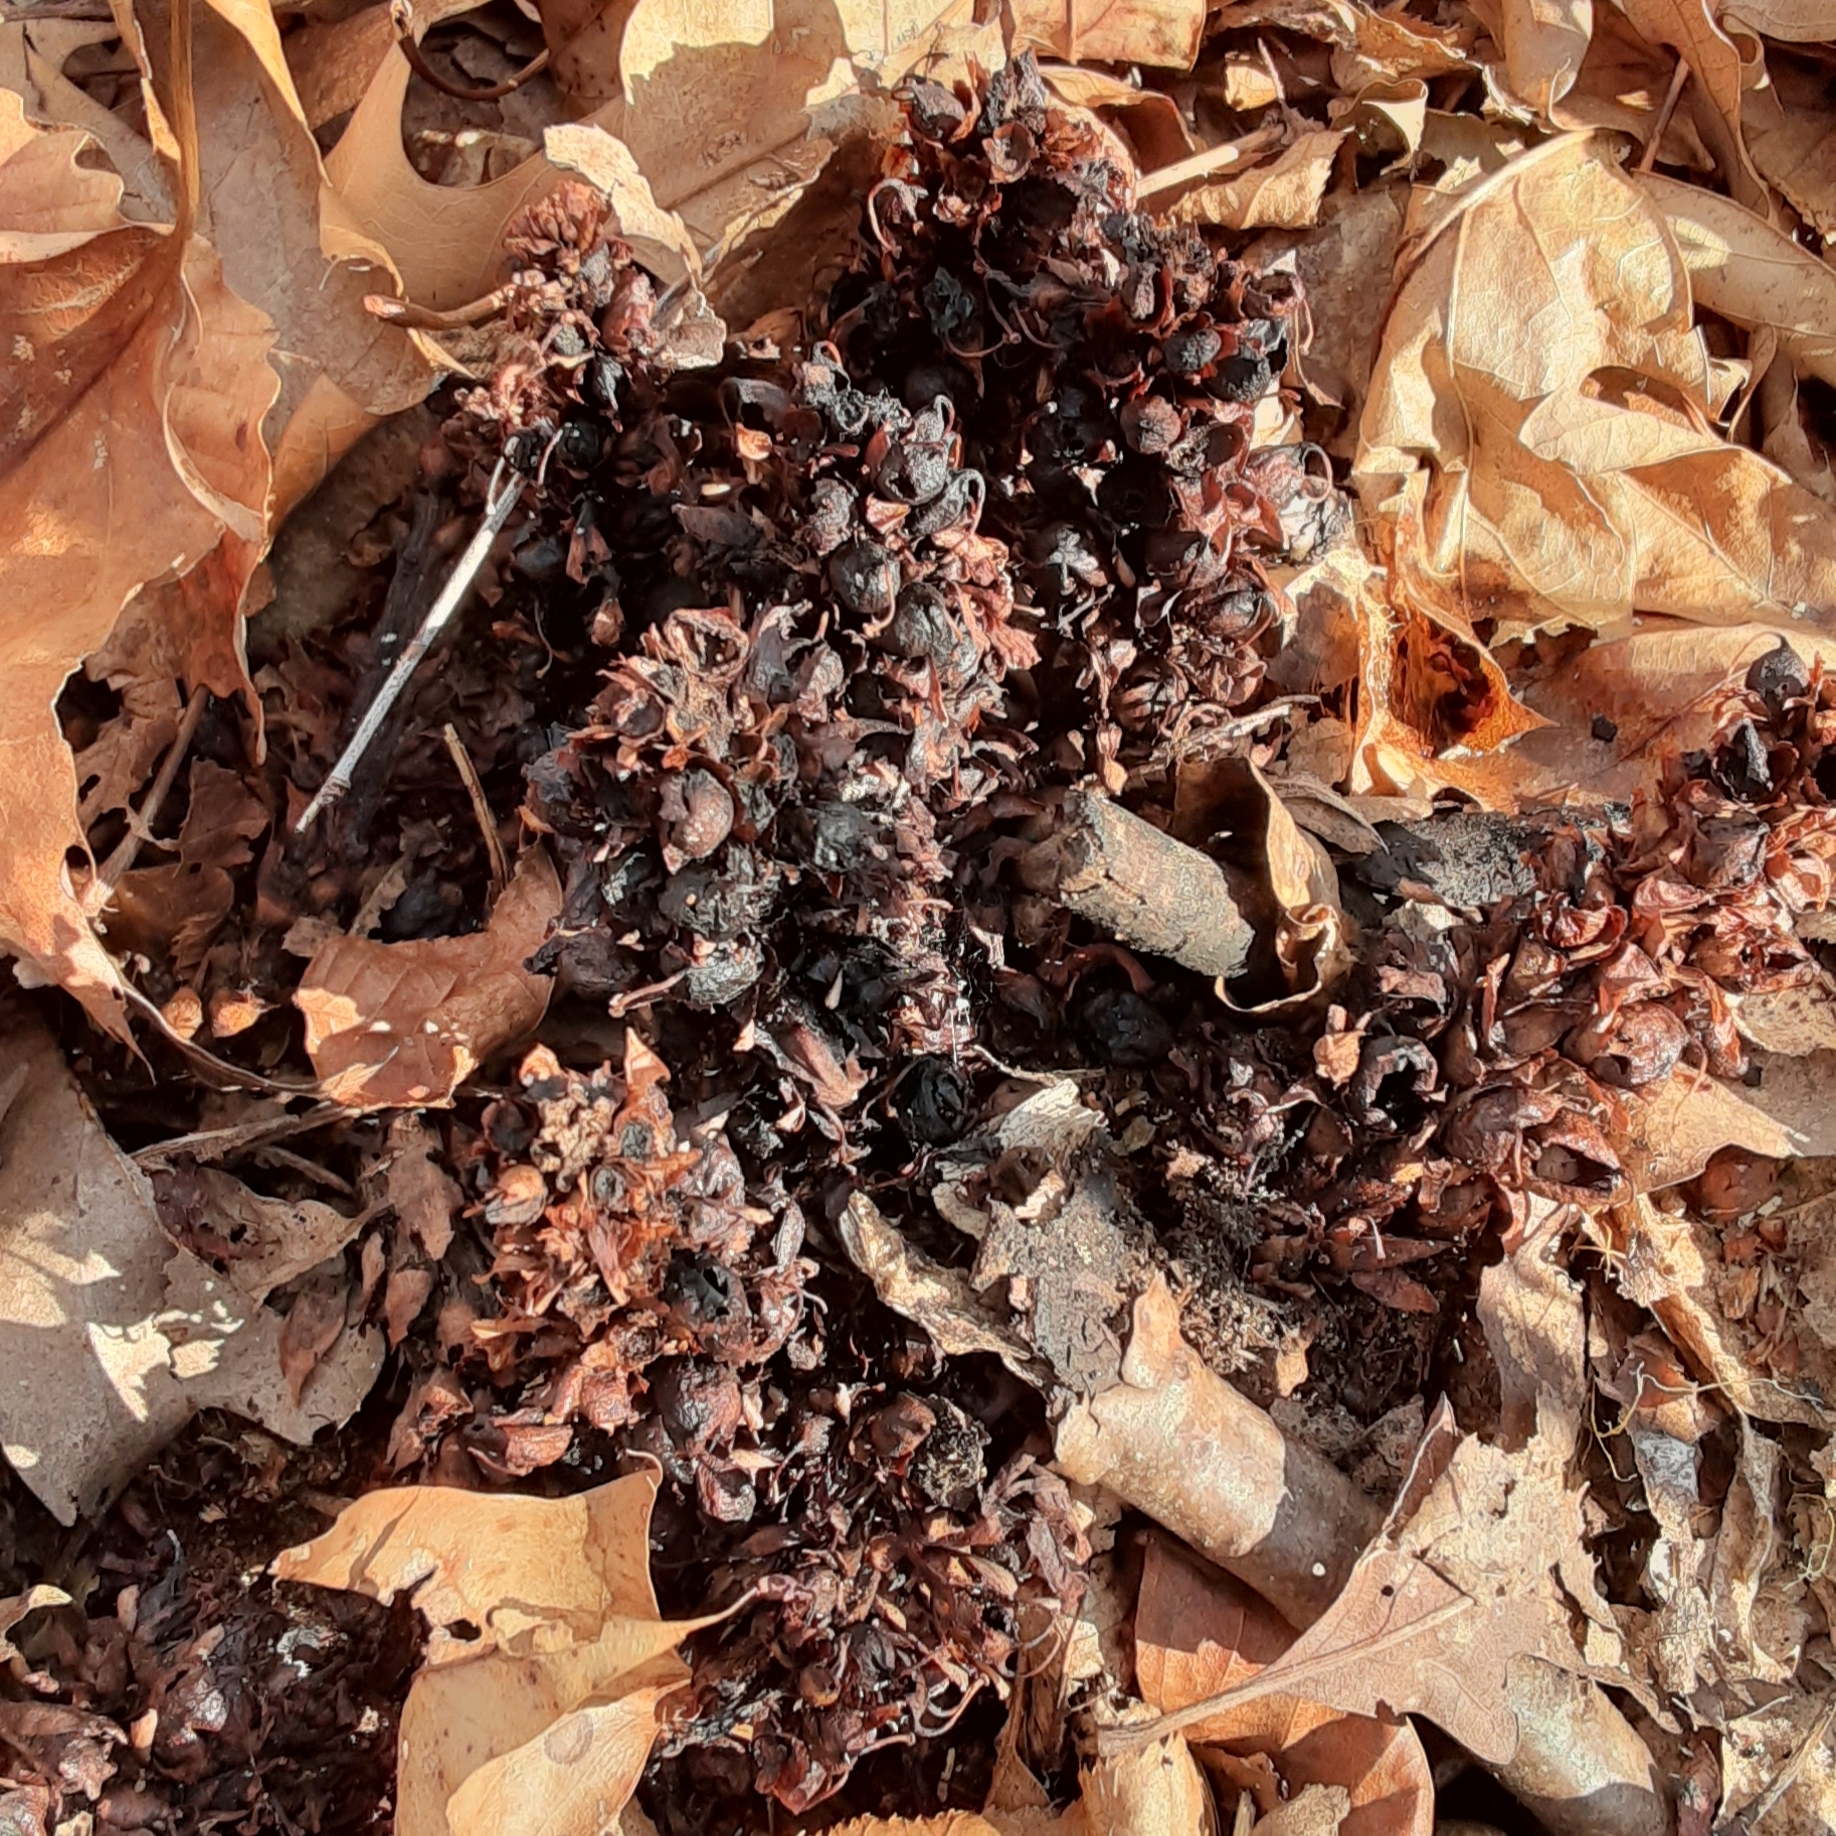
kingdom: Plantae
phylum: Tracheophyta
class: Magnoliopsida
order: Lamiales
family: Orobanchaceae
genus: Conopholis
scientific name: Conopholis americana
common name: American cancer-root
